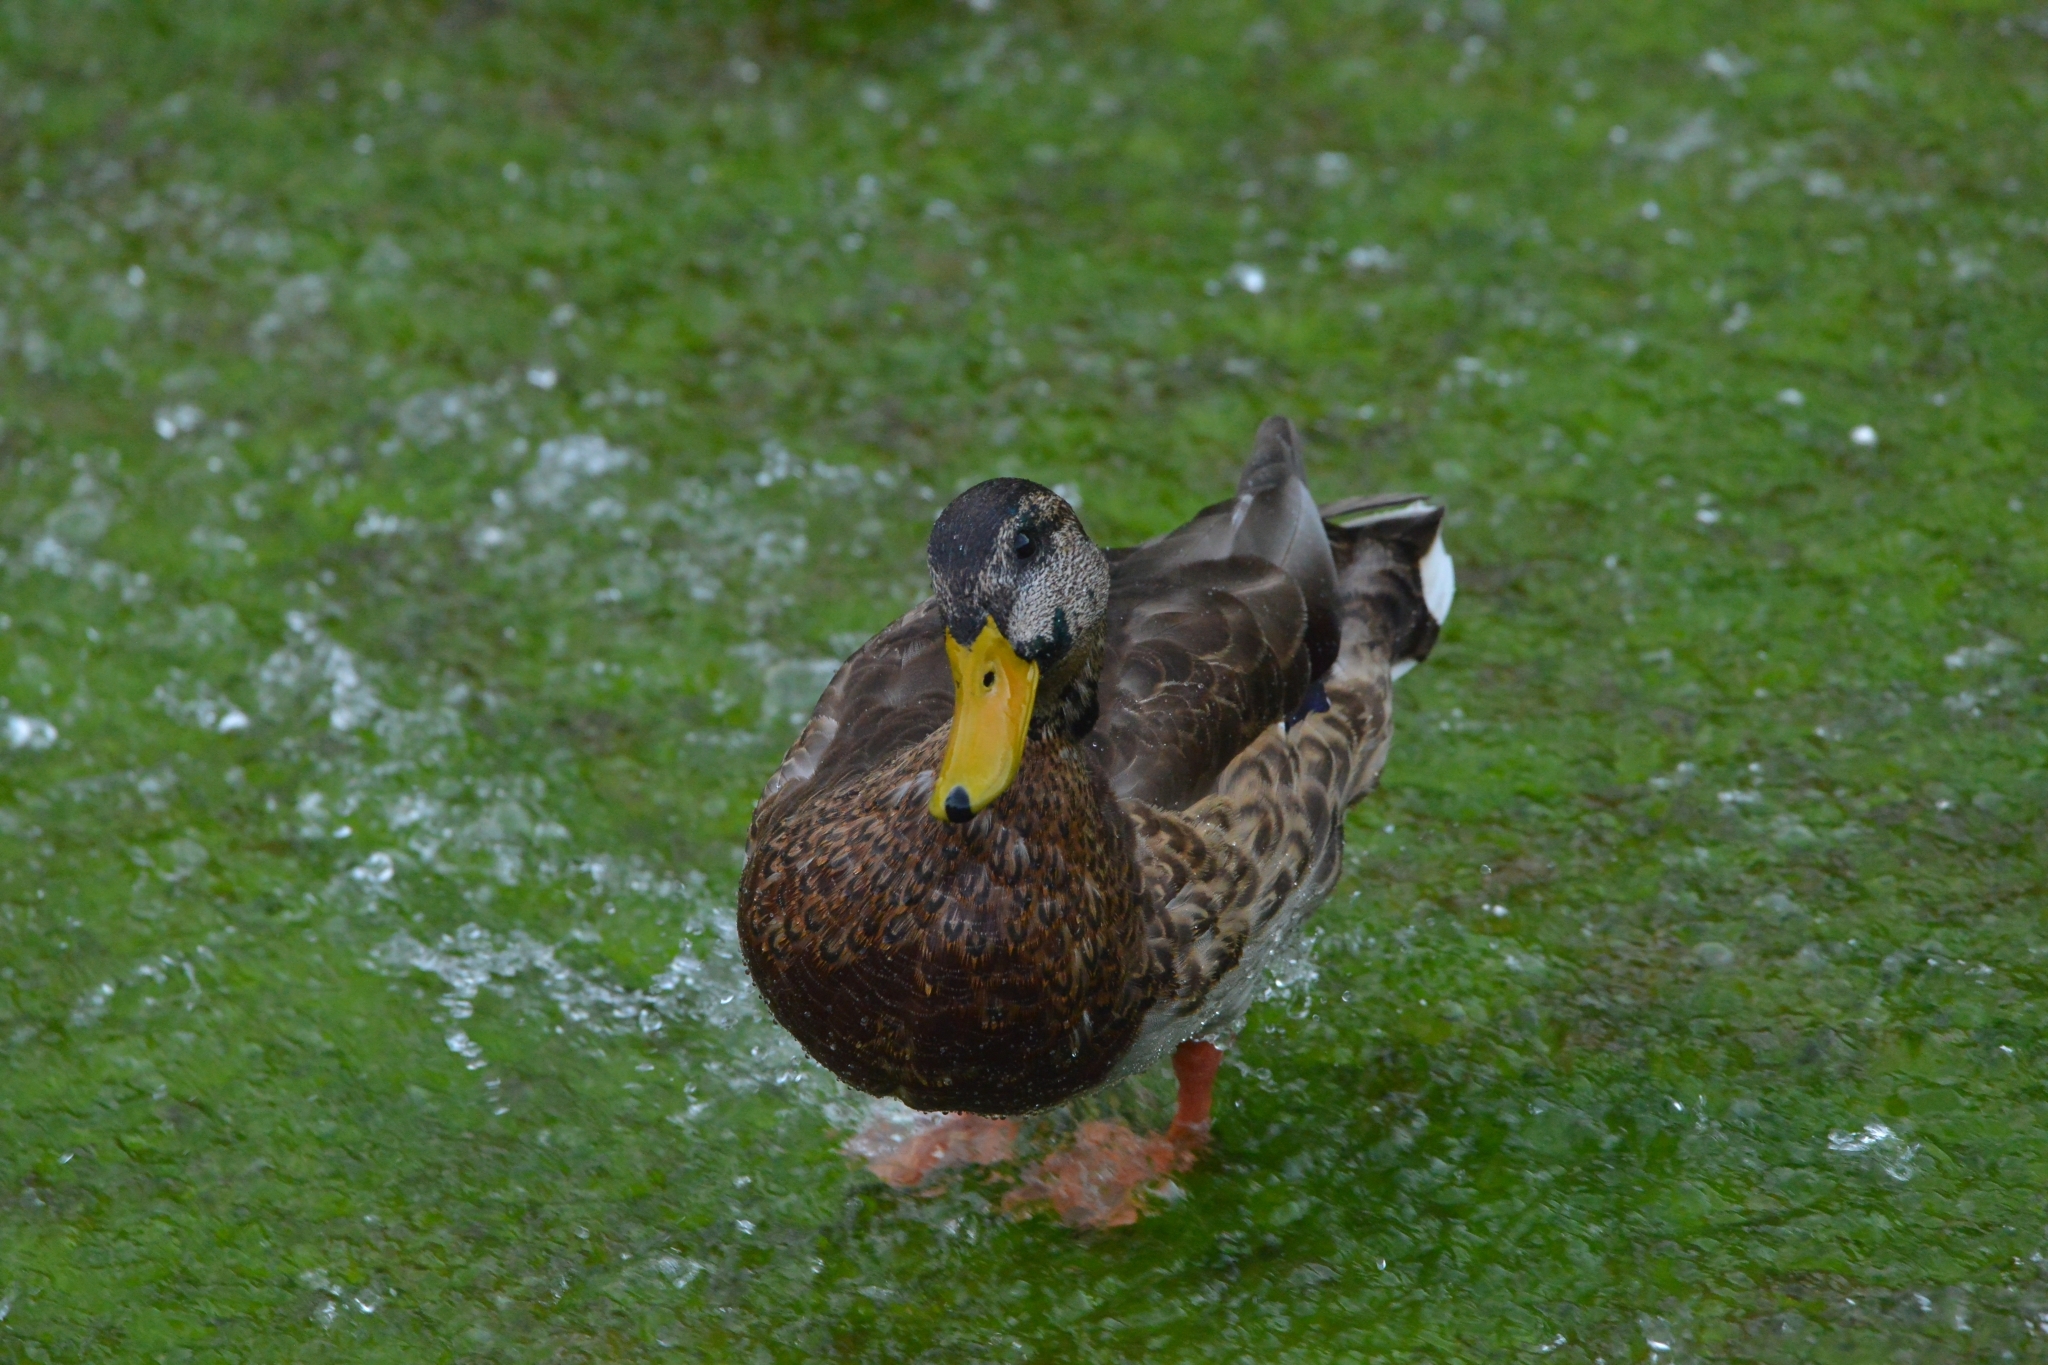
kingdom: Animalia
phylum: Chordata
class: Aves
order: Anseriformes
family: Anatidae
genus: Anas
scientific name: Anas platyrhynchos
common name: Mallard
